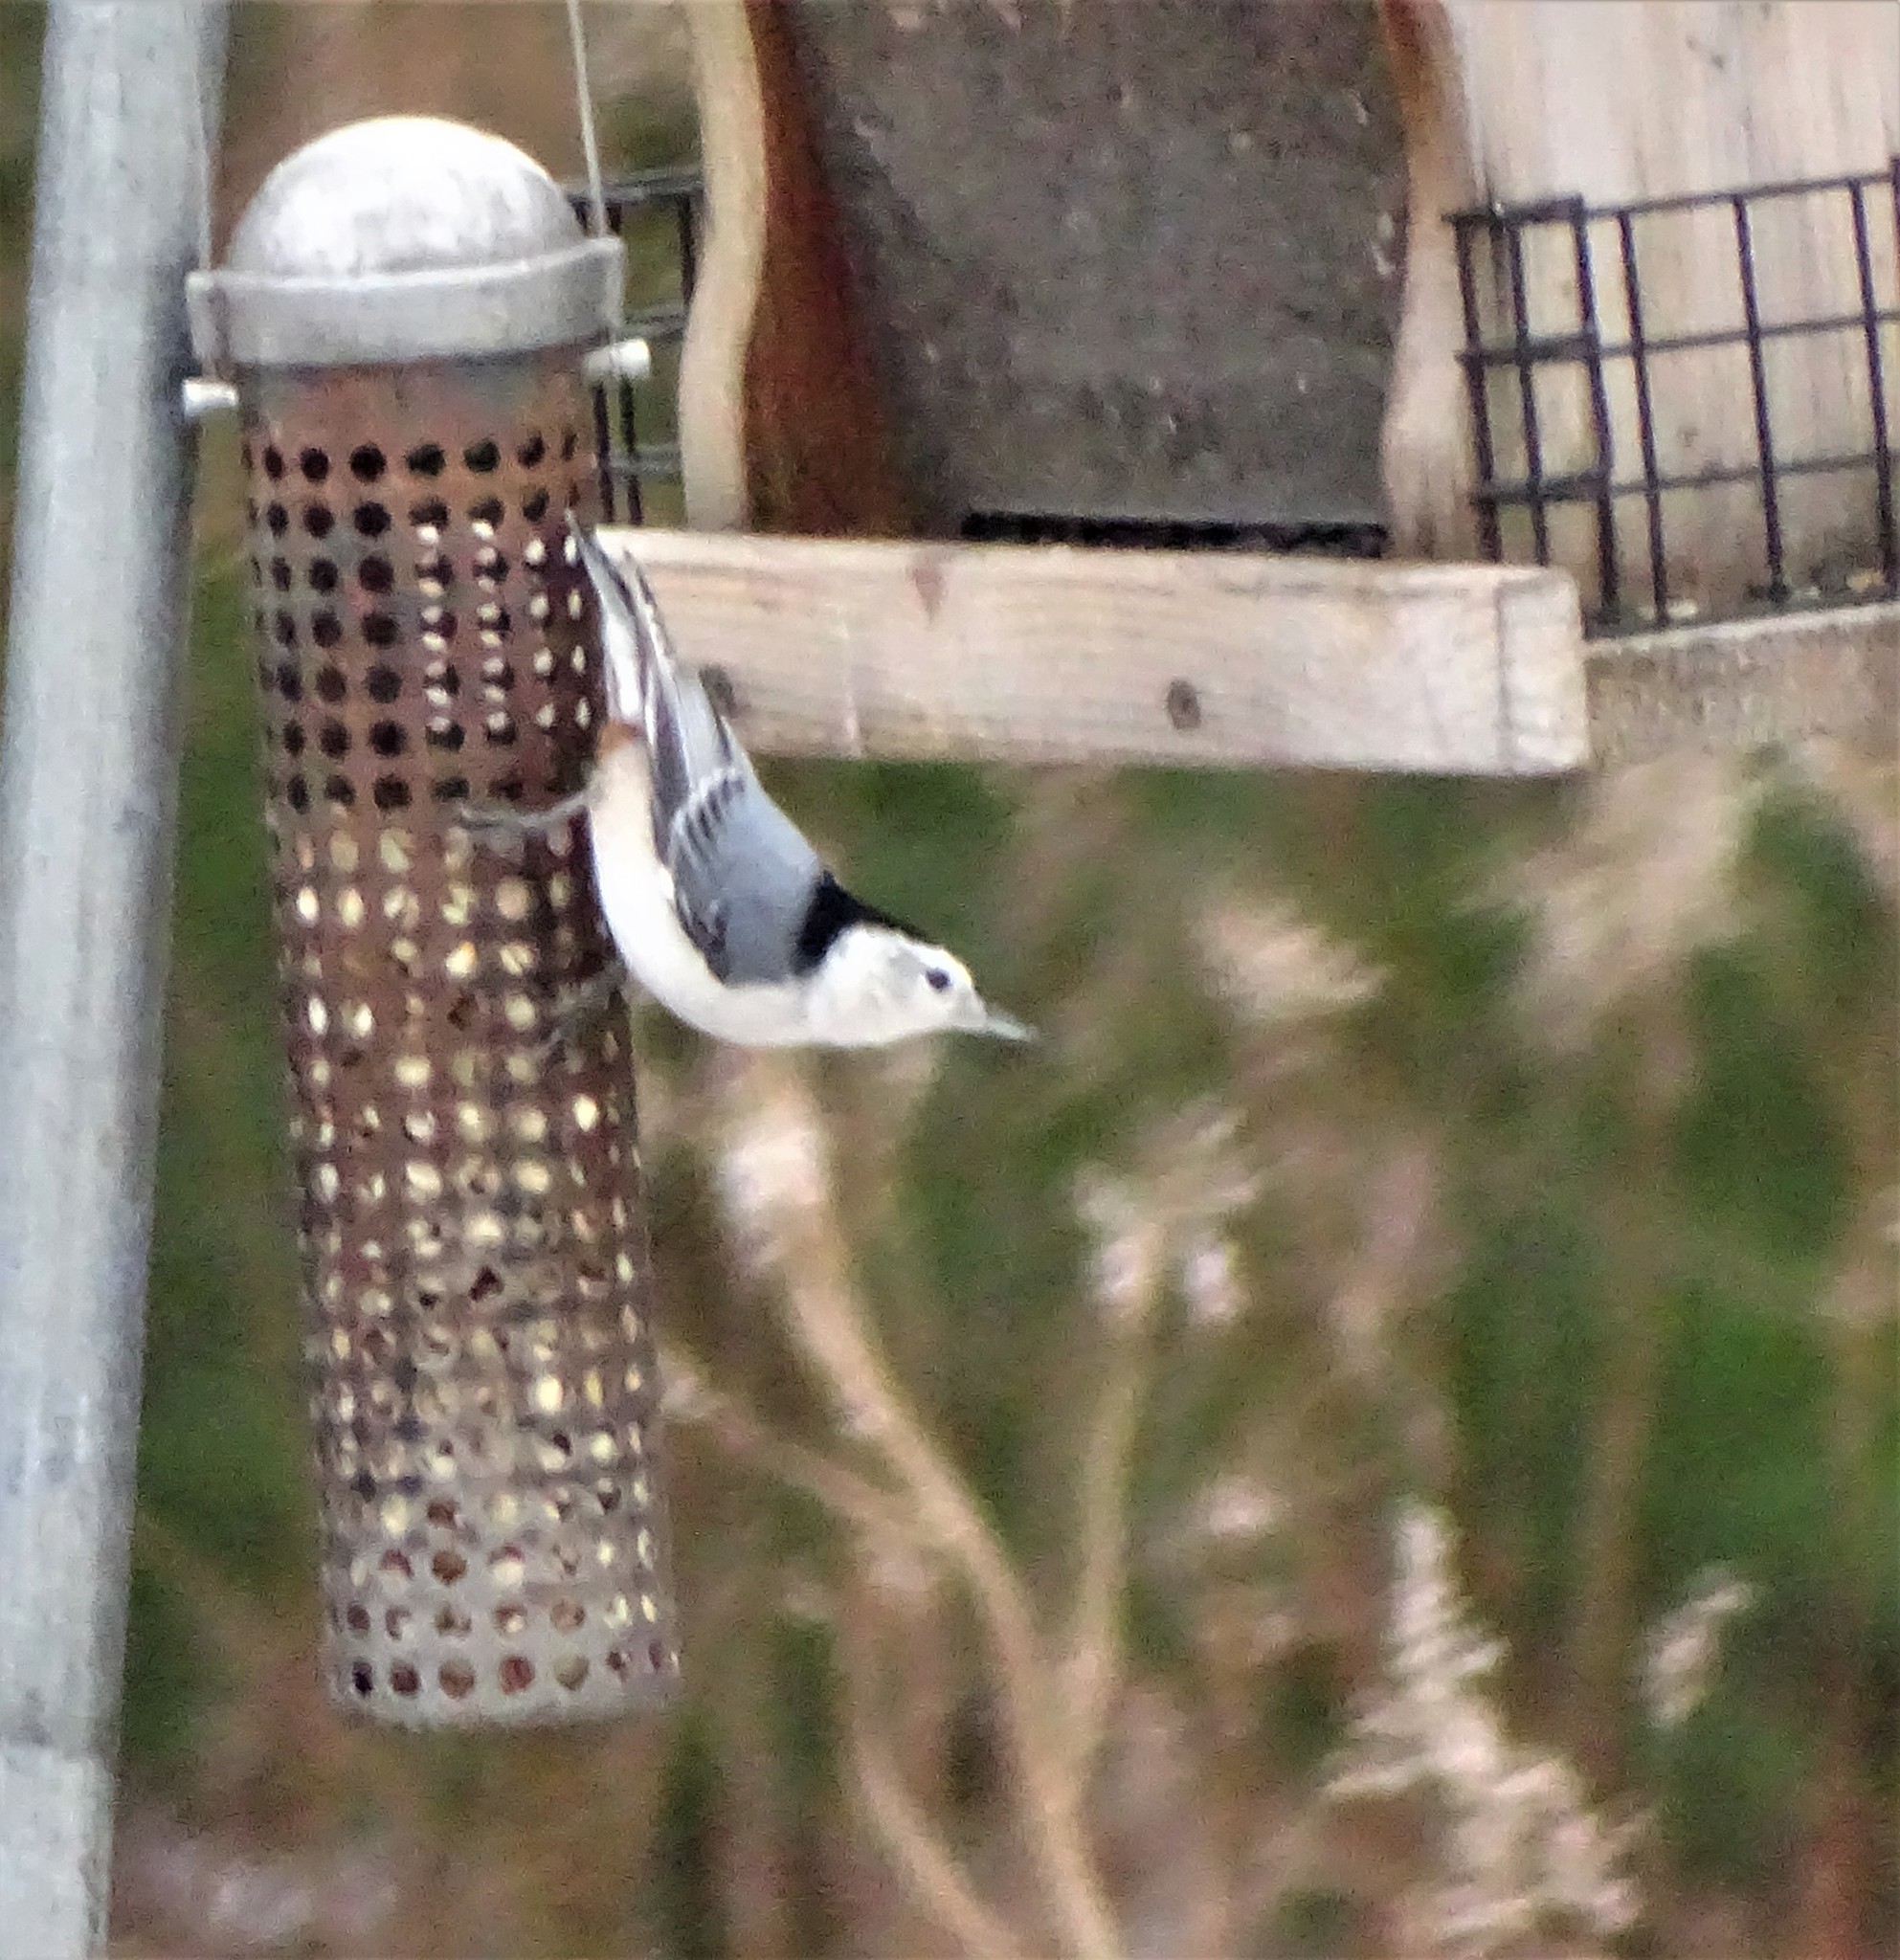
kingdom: Animalia
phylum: Chordata
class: Aves
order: Passeriformes
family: Sittidae
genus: Sitta
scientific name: Sitta carolinensis
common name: White-breasted nuthatch
